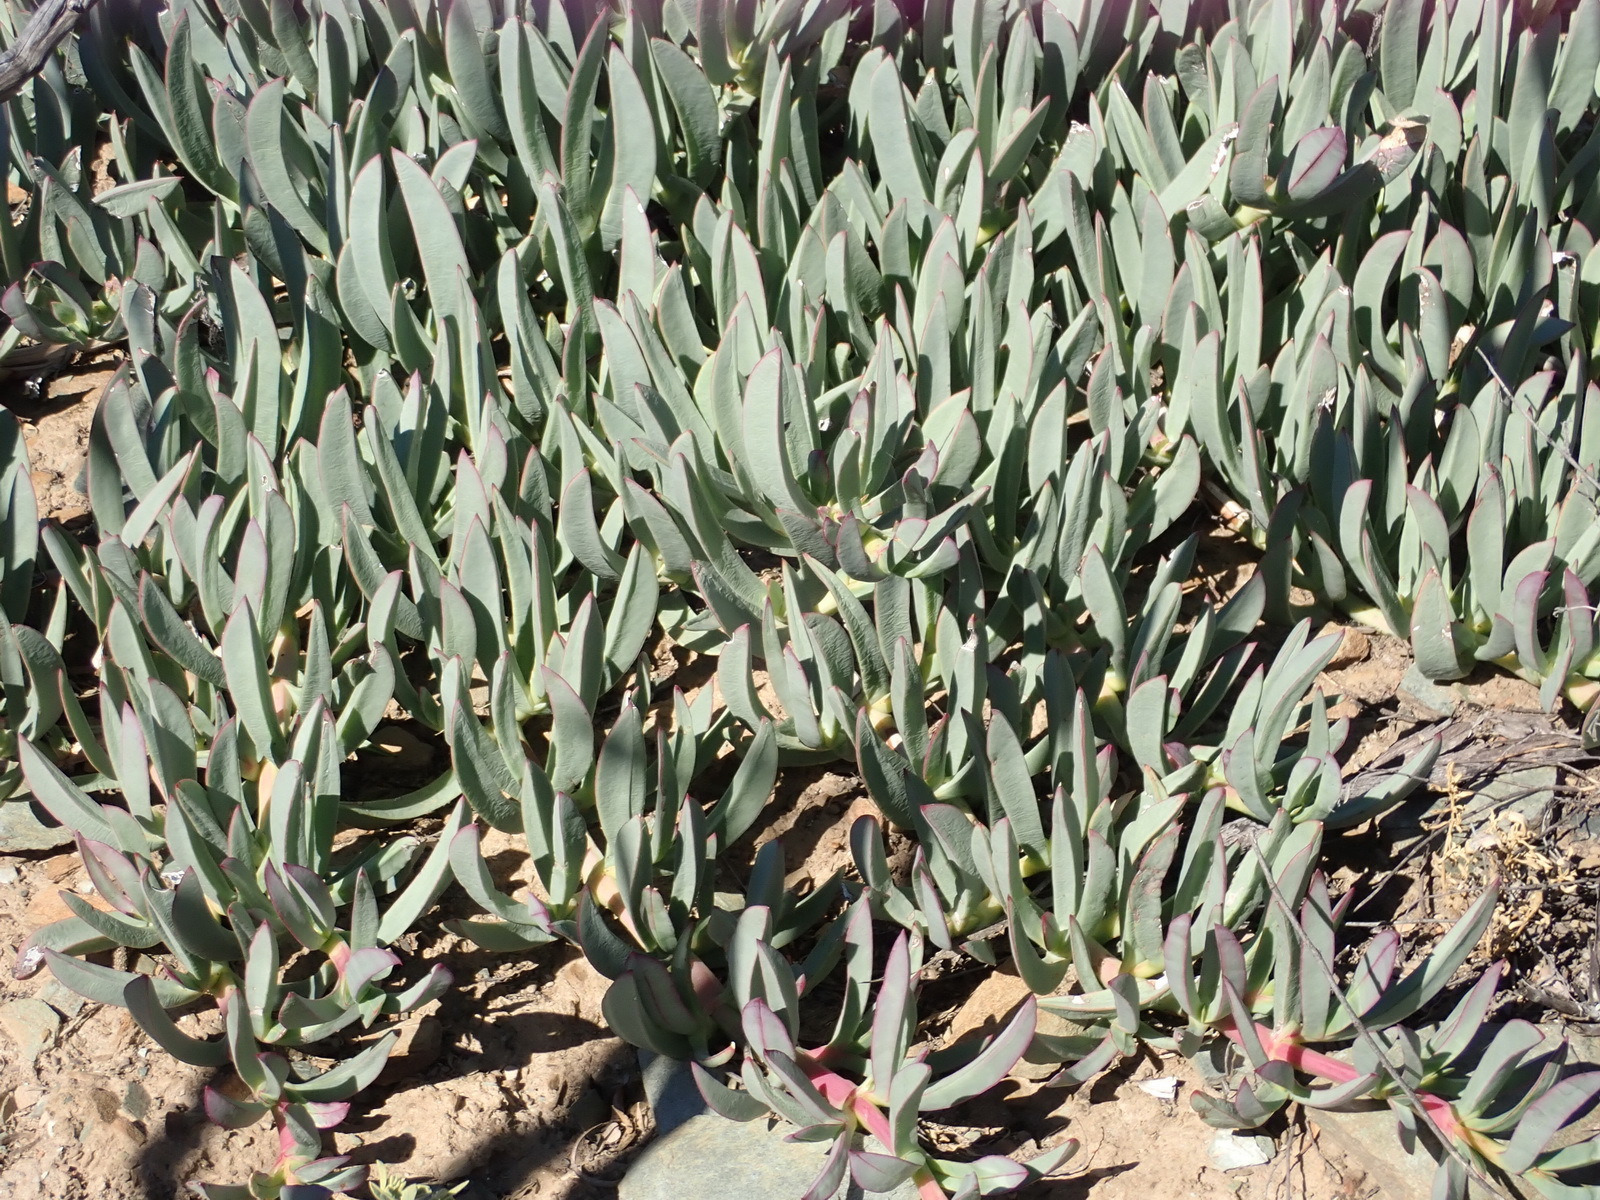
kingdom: Plantae
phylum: Tracheophyta
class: Magnoliopsida
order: Caryophyllales
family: Aizoaceae
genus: Carpobrotus
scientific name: Carpobrotus mellei
